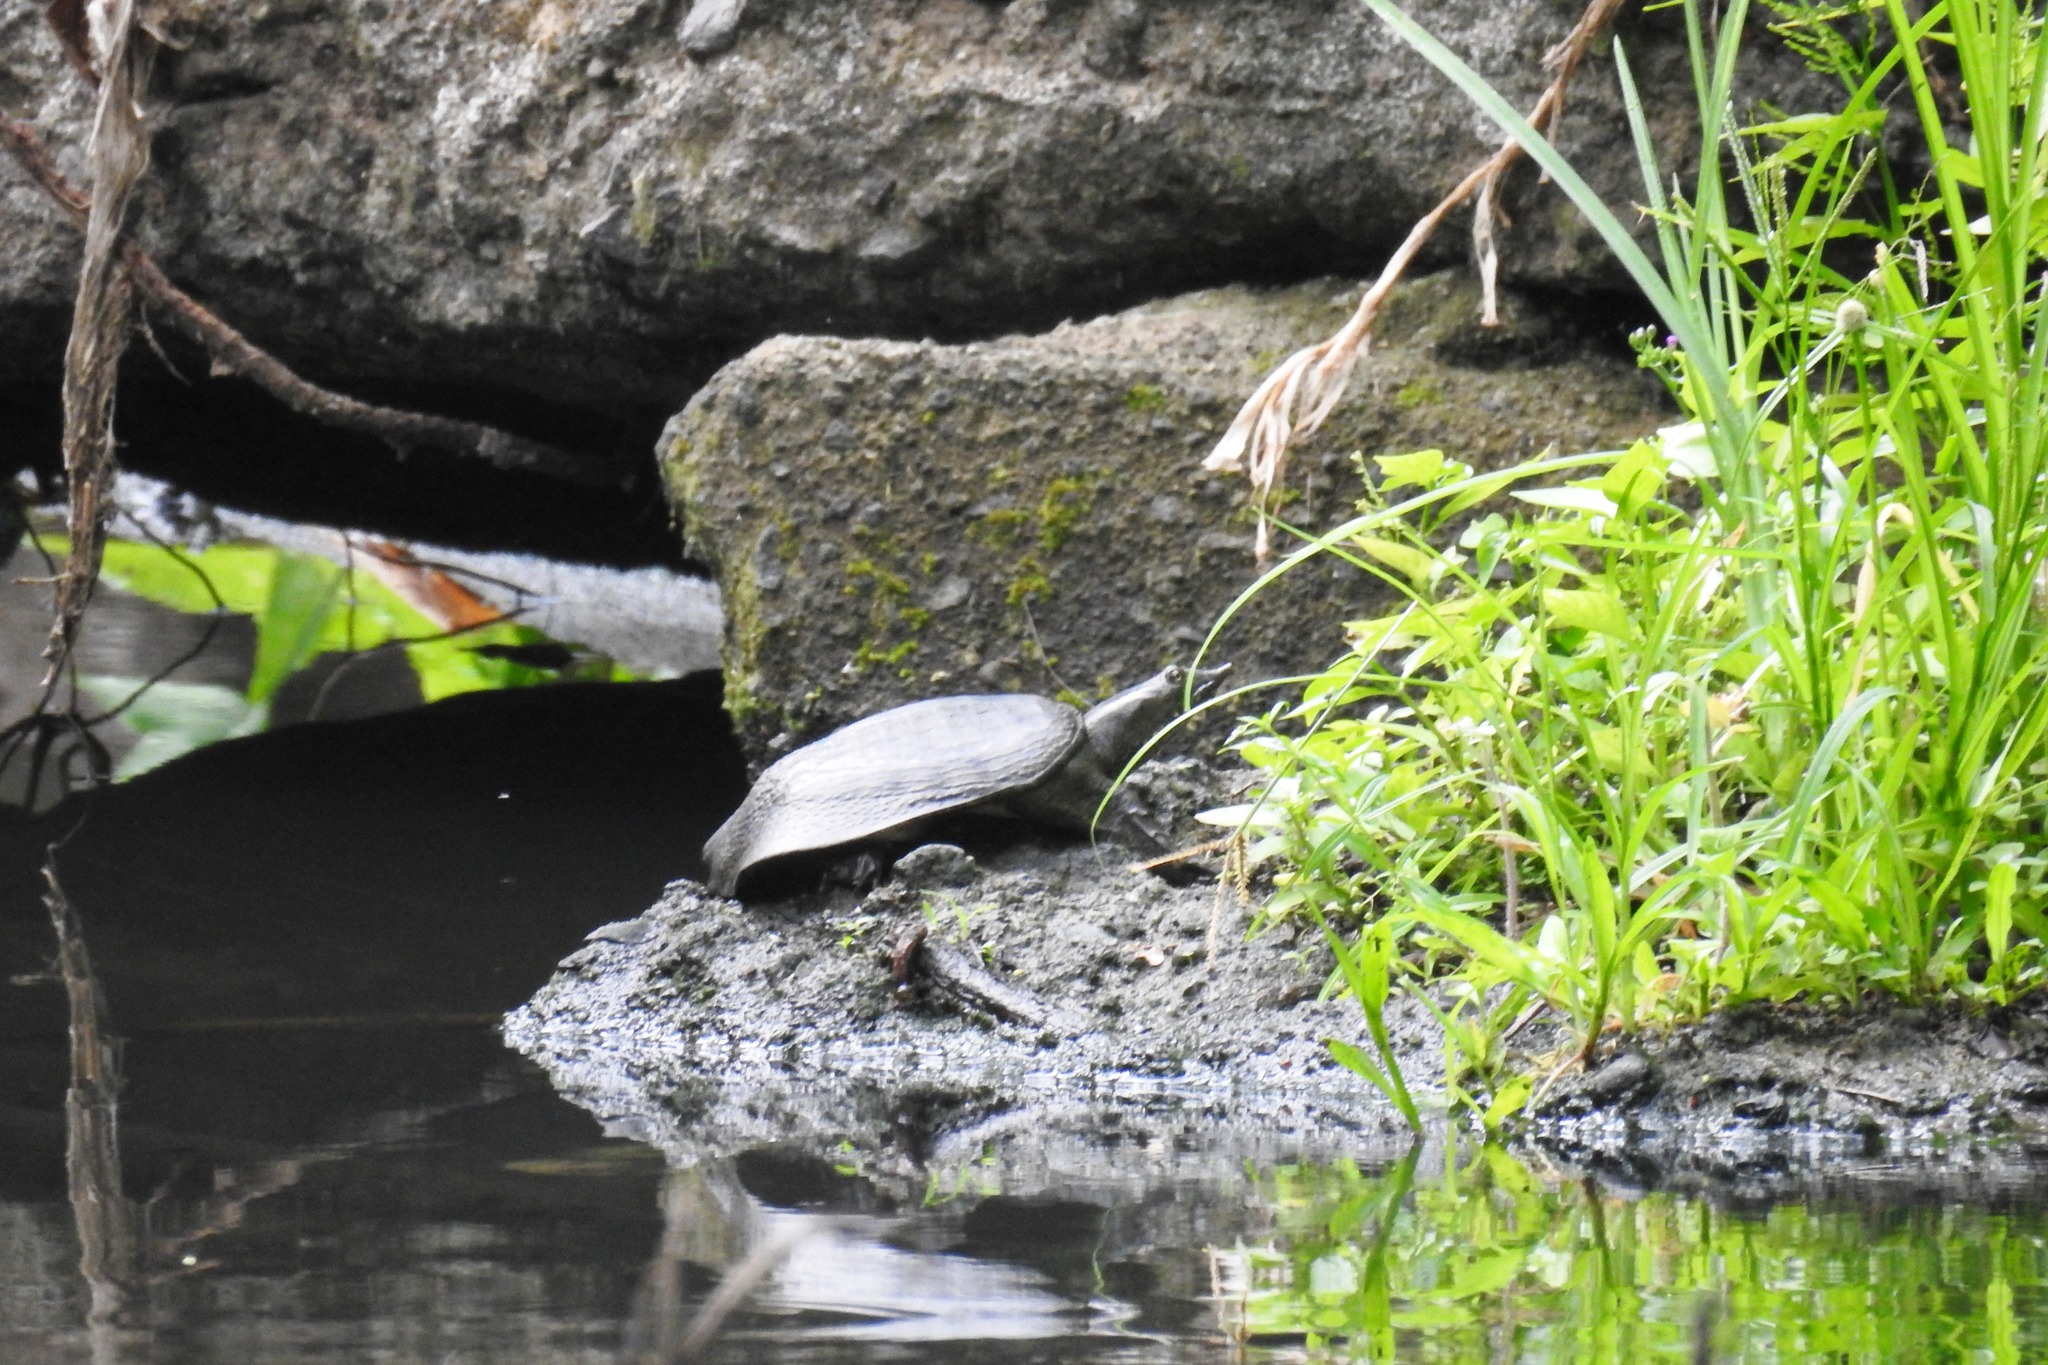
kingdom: Animalia
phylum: Chordata
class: Testudines
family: Trionychidae
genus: Pelodiscus
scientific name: Pelodiscus sinensis
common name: Chinese softshell turtle
